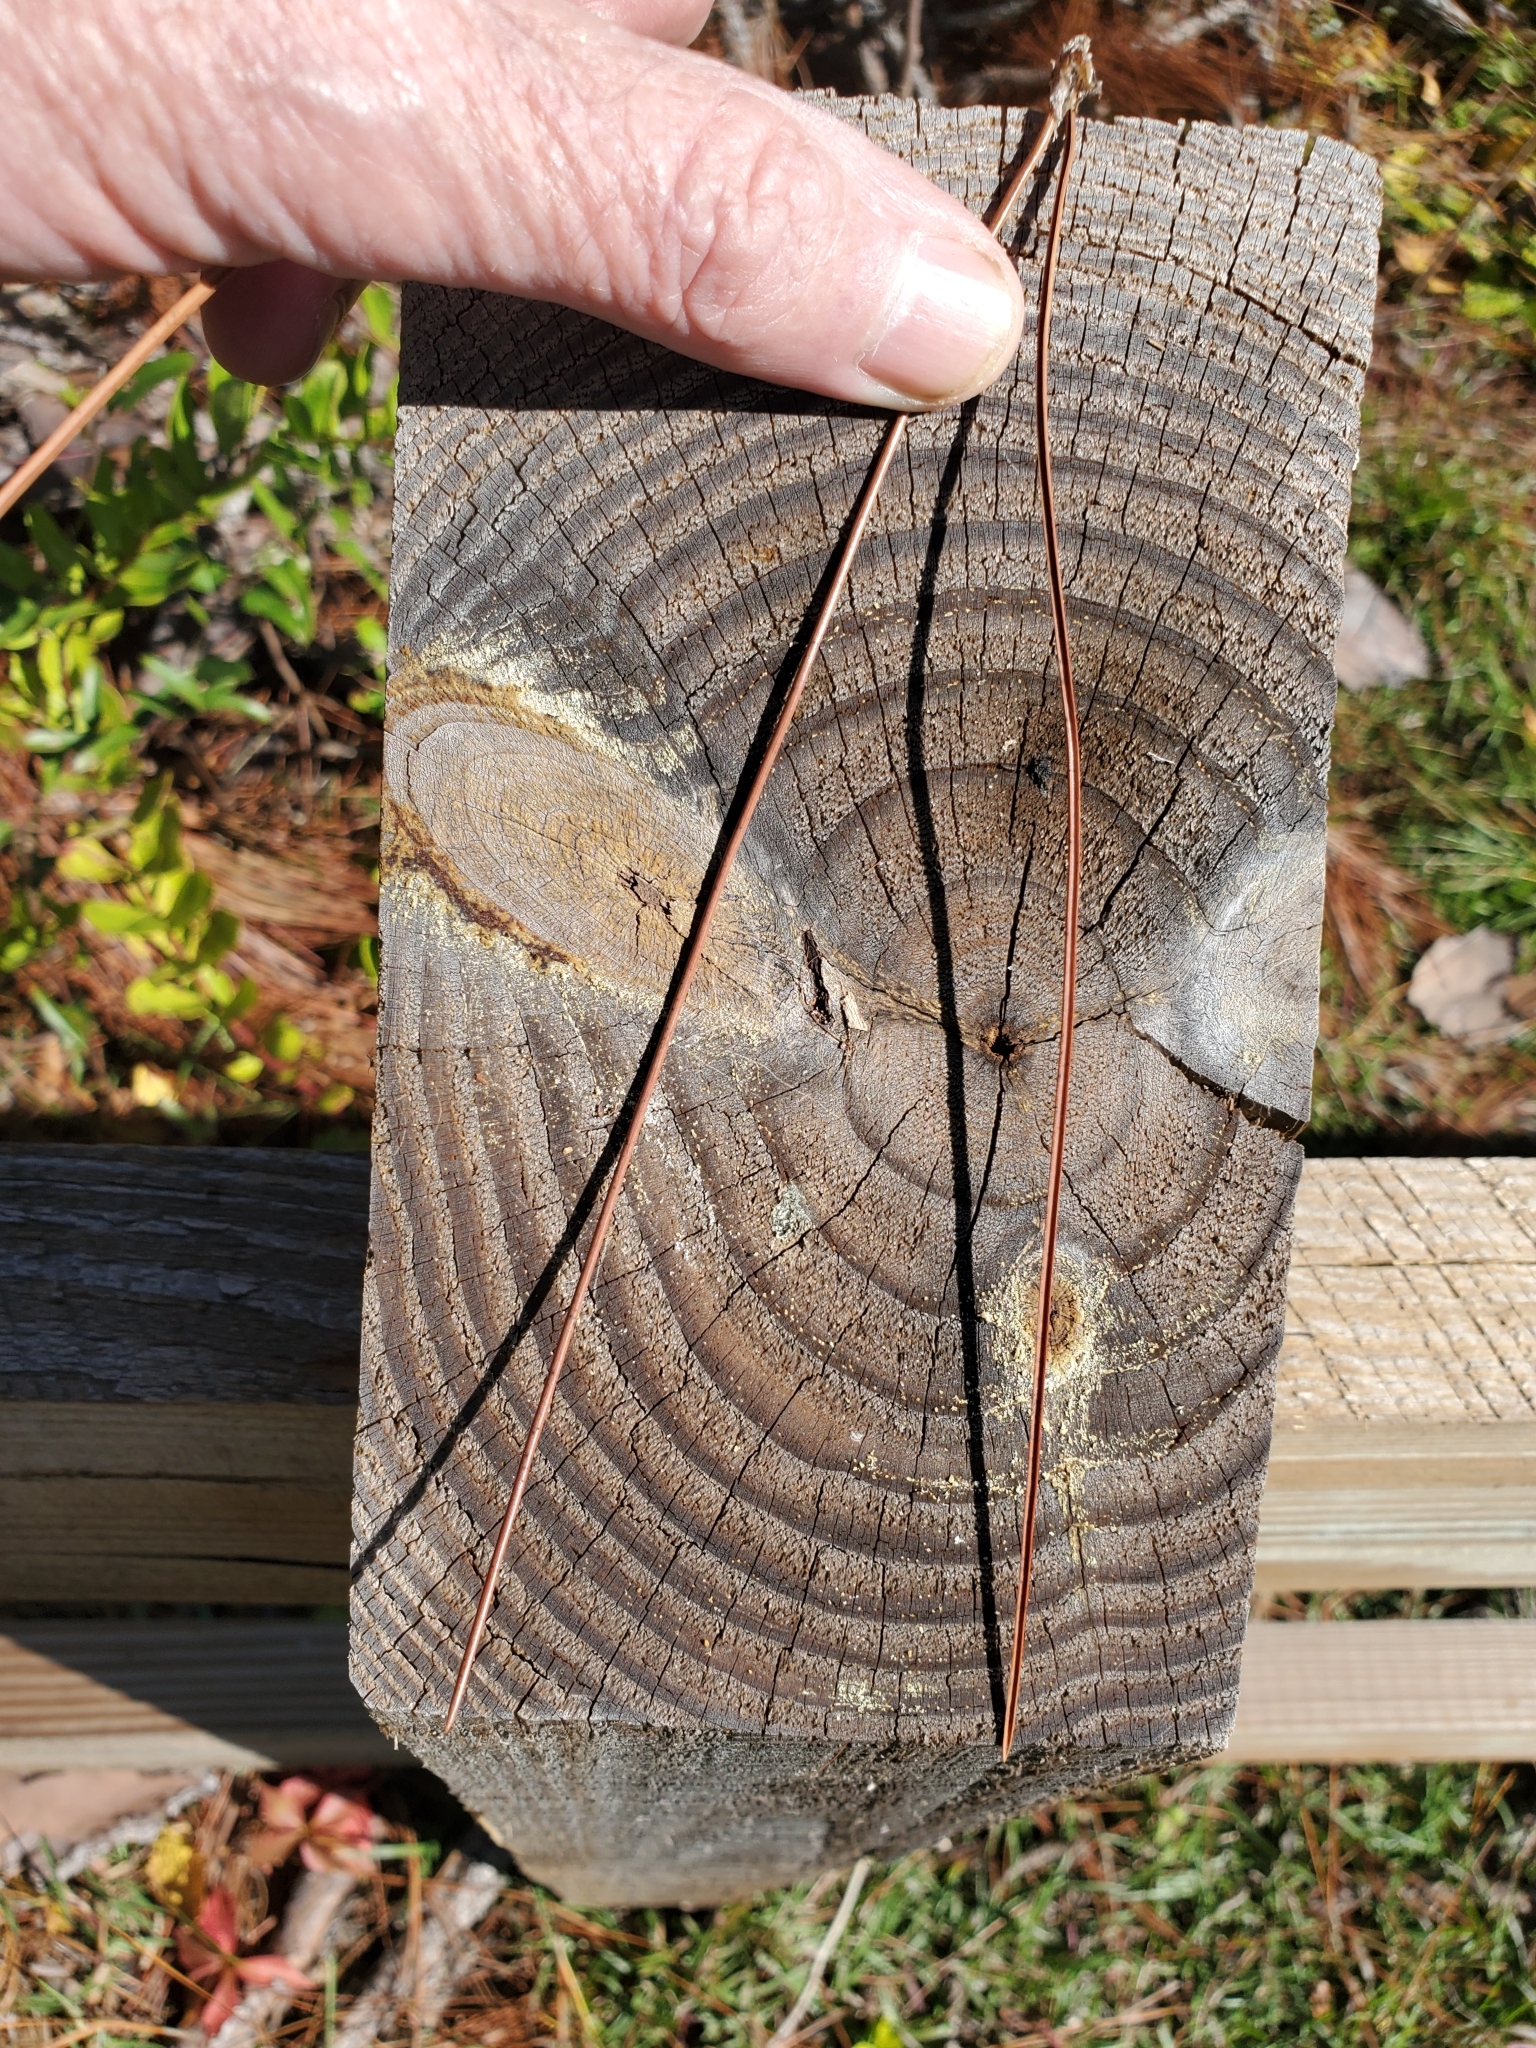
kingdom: Plantae
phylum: Tracheophyta
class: Pinopsida
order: Pinales
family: Pinaceae
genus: Pinus
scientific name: Pinus elliottii
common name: Slash pine
